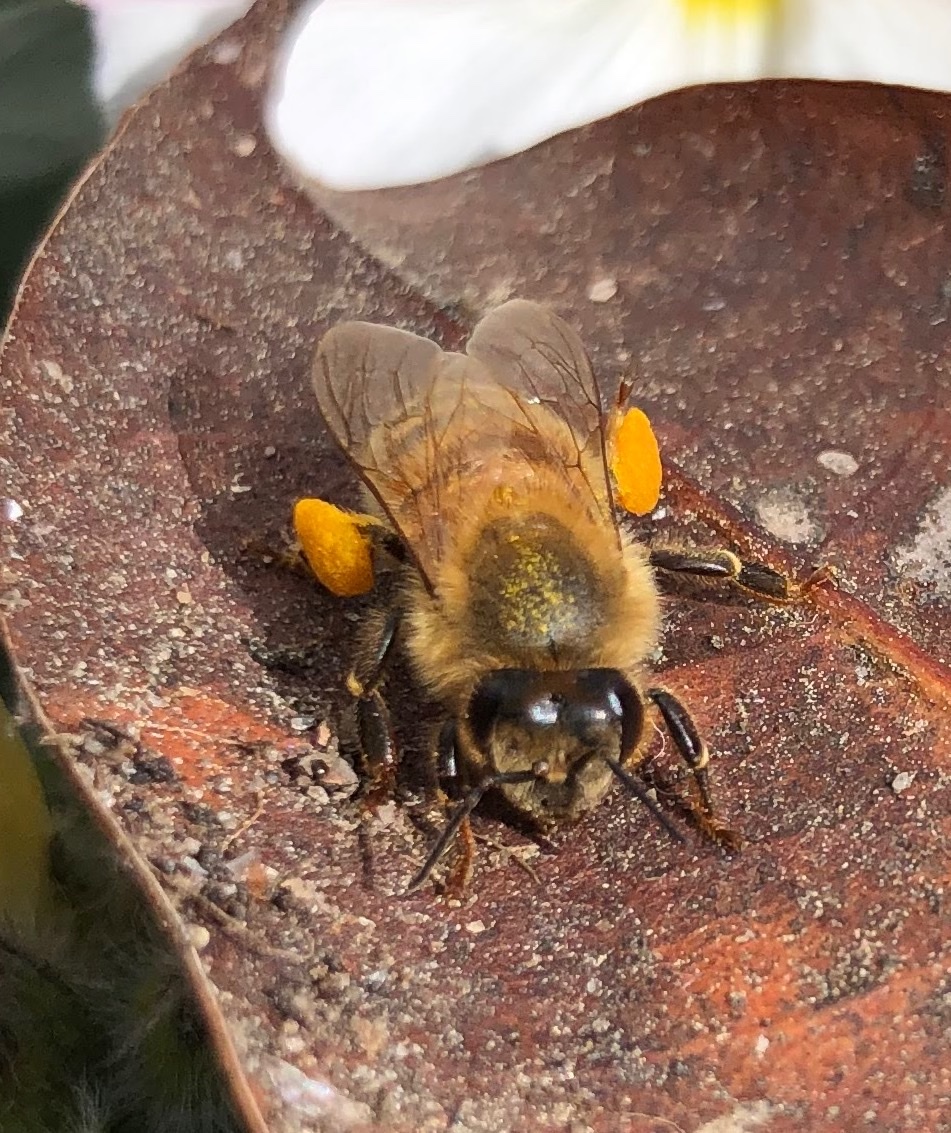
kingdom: Animalia
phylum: Arthropoda
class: Insecta
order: Hymenoptera
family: Apidae
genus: Apis
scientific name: Apis mellifera
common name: Honey bee
